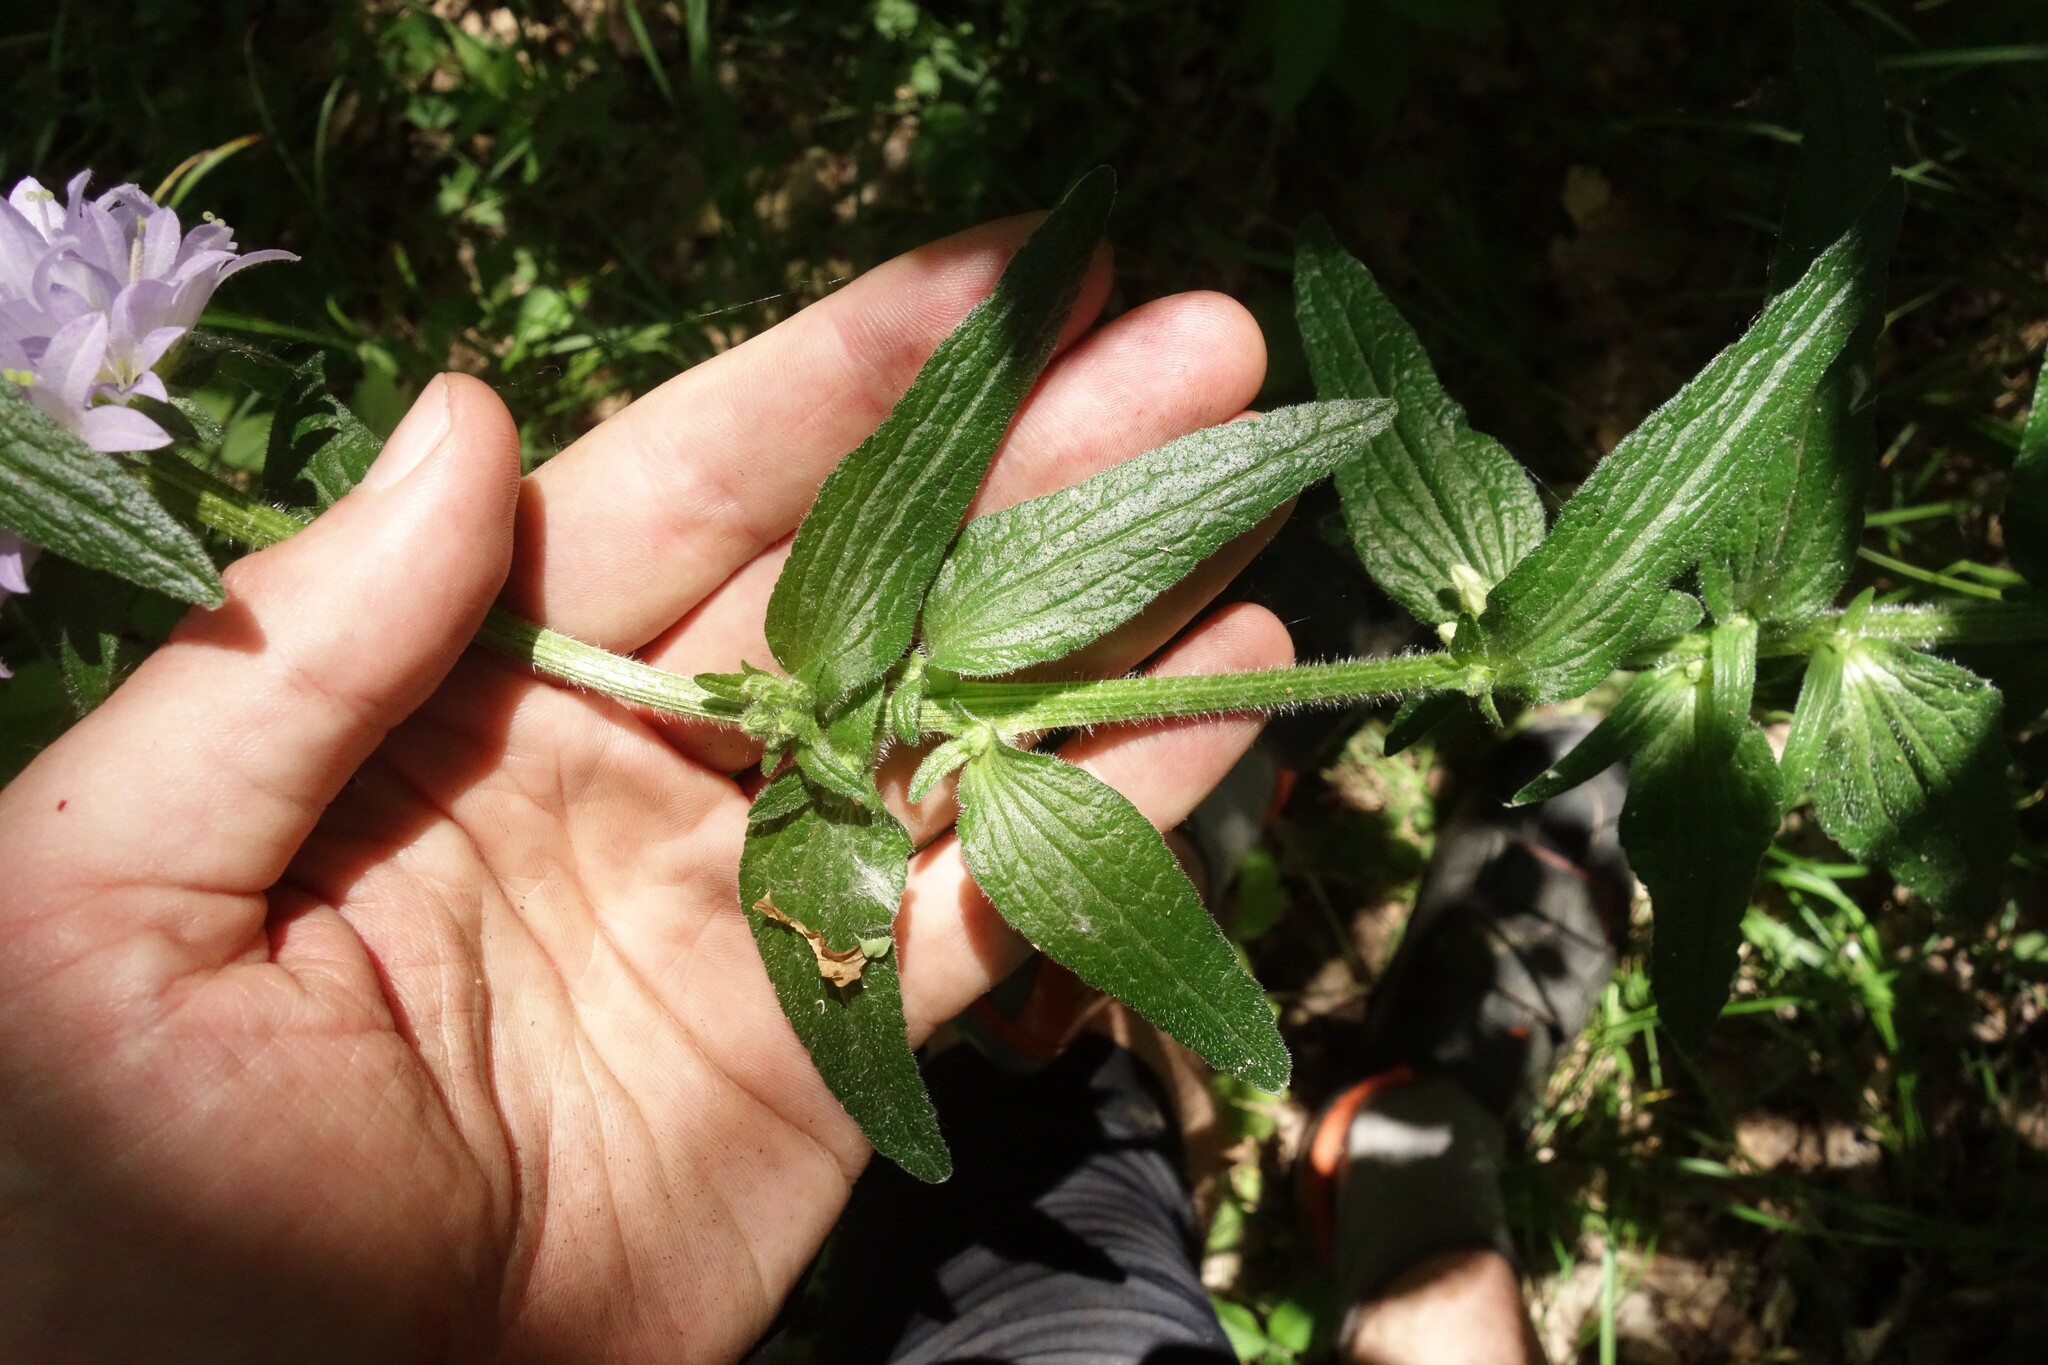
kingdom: Plantae
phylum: Tracheophyta
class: Magnoliopsida
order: Asterales
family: Campanulaceae
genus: Campanula
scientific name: Campanula cervicaria
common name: Bristly bellflower
